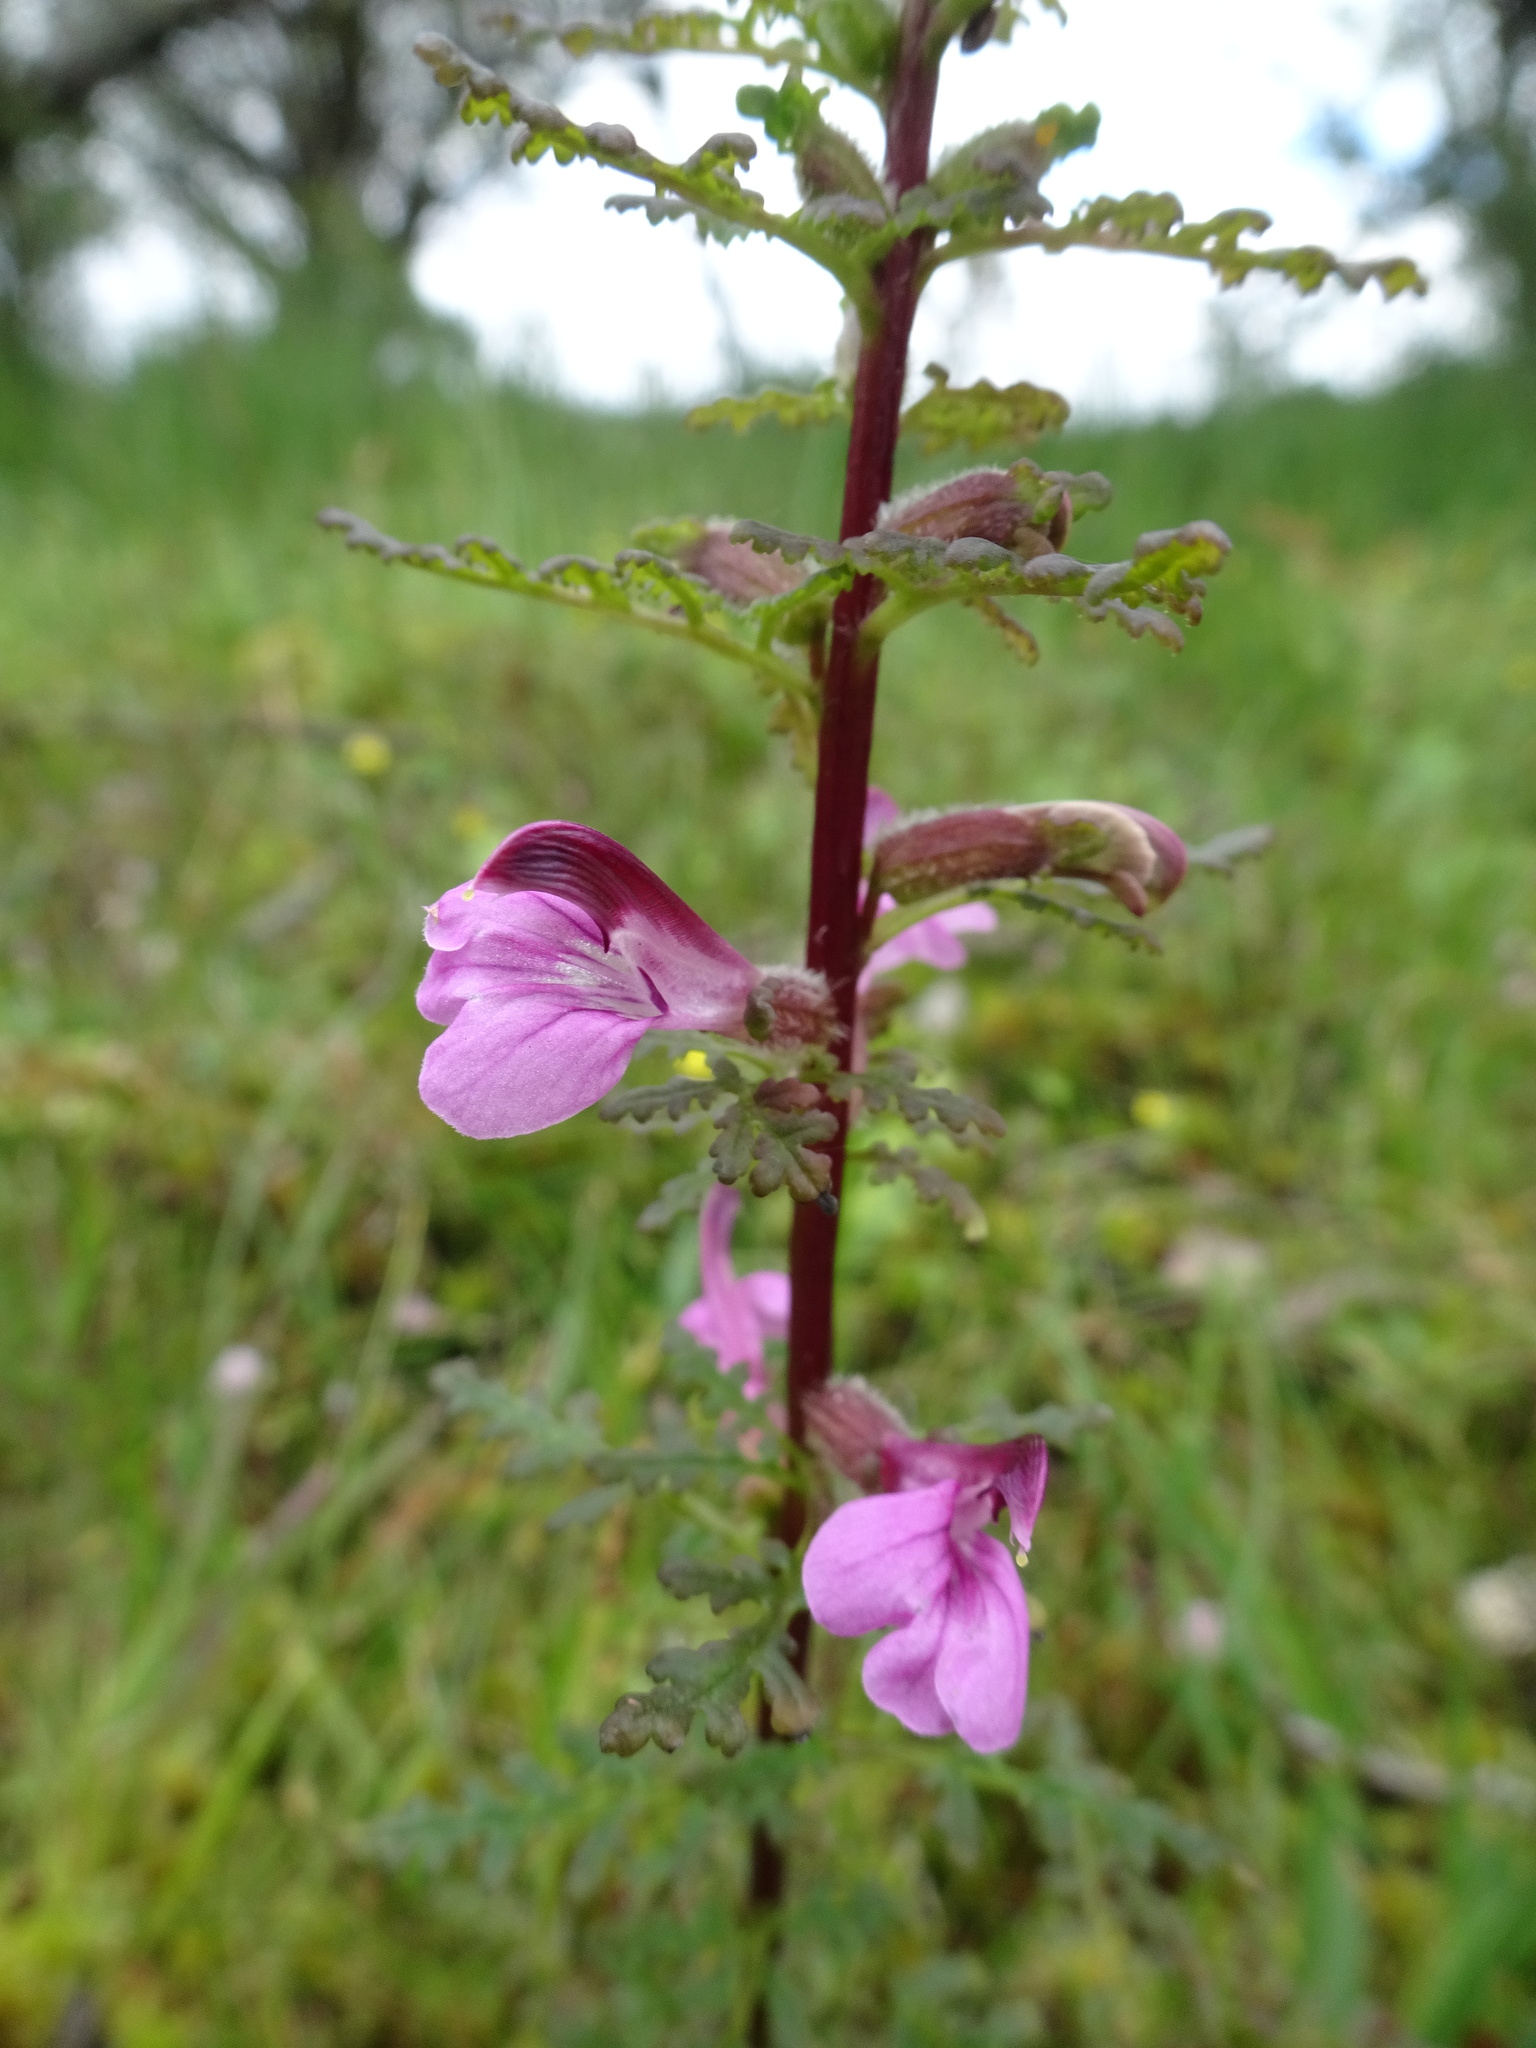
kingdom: Plantae
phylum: Tracheophyta
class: Magnoliopsida
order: Lamiales
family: Orobanchaceae
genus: Pedicularis
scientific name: Pedicularis palustris
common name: Marsh lousewort
